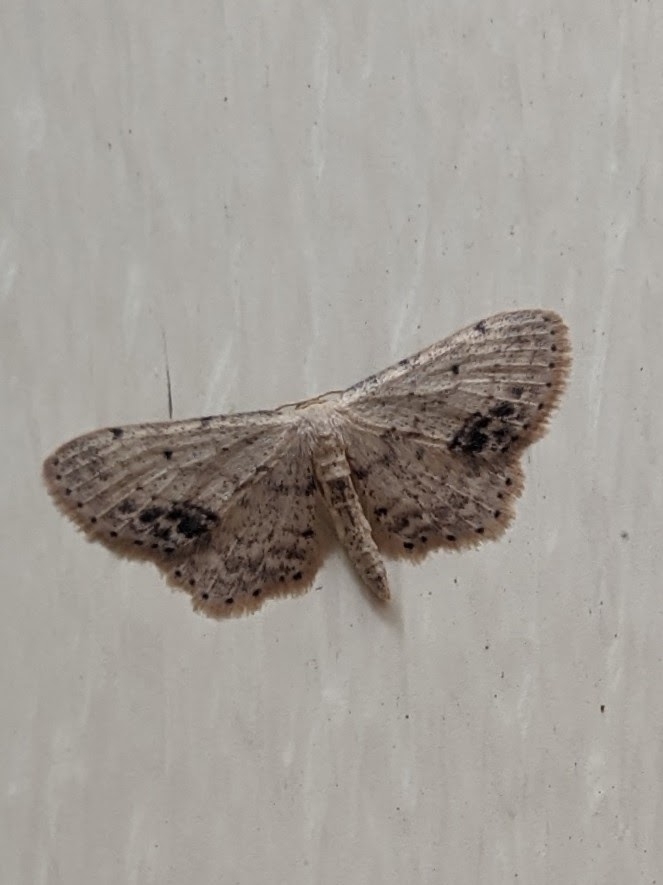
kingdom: Animalia
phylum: Arthropoda
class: Insecta
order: Lepidoptera
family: Geometridae
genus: Idaea
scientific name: Idaea dimidiata
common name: Single-dotted wave
